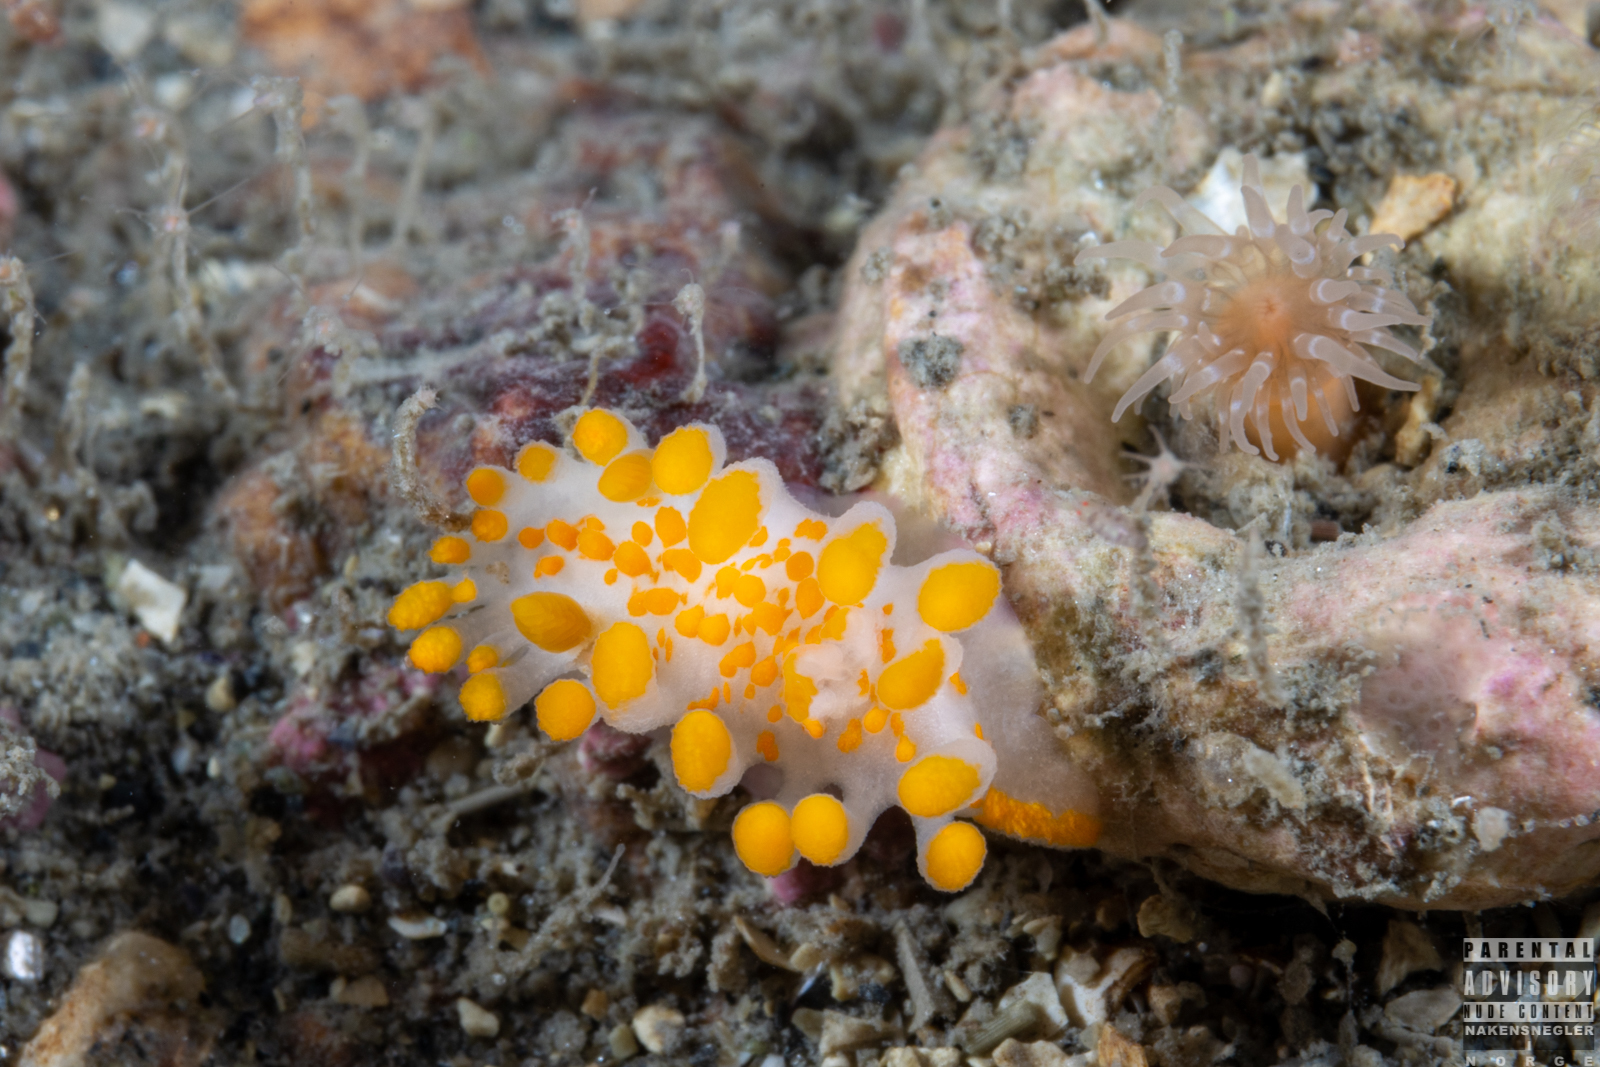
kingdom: Animalia
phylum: Mollusca
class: Gastropoda
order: Nudibranchia
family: Polyceridae
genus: Limacia
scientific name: Limacia clavigera
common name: Orange-clubbed sea slug
